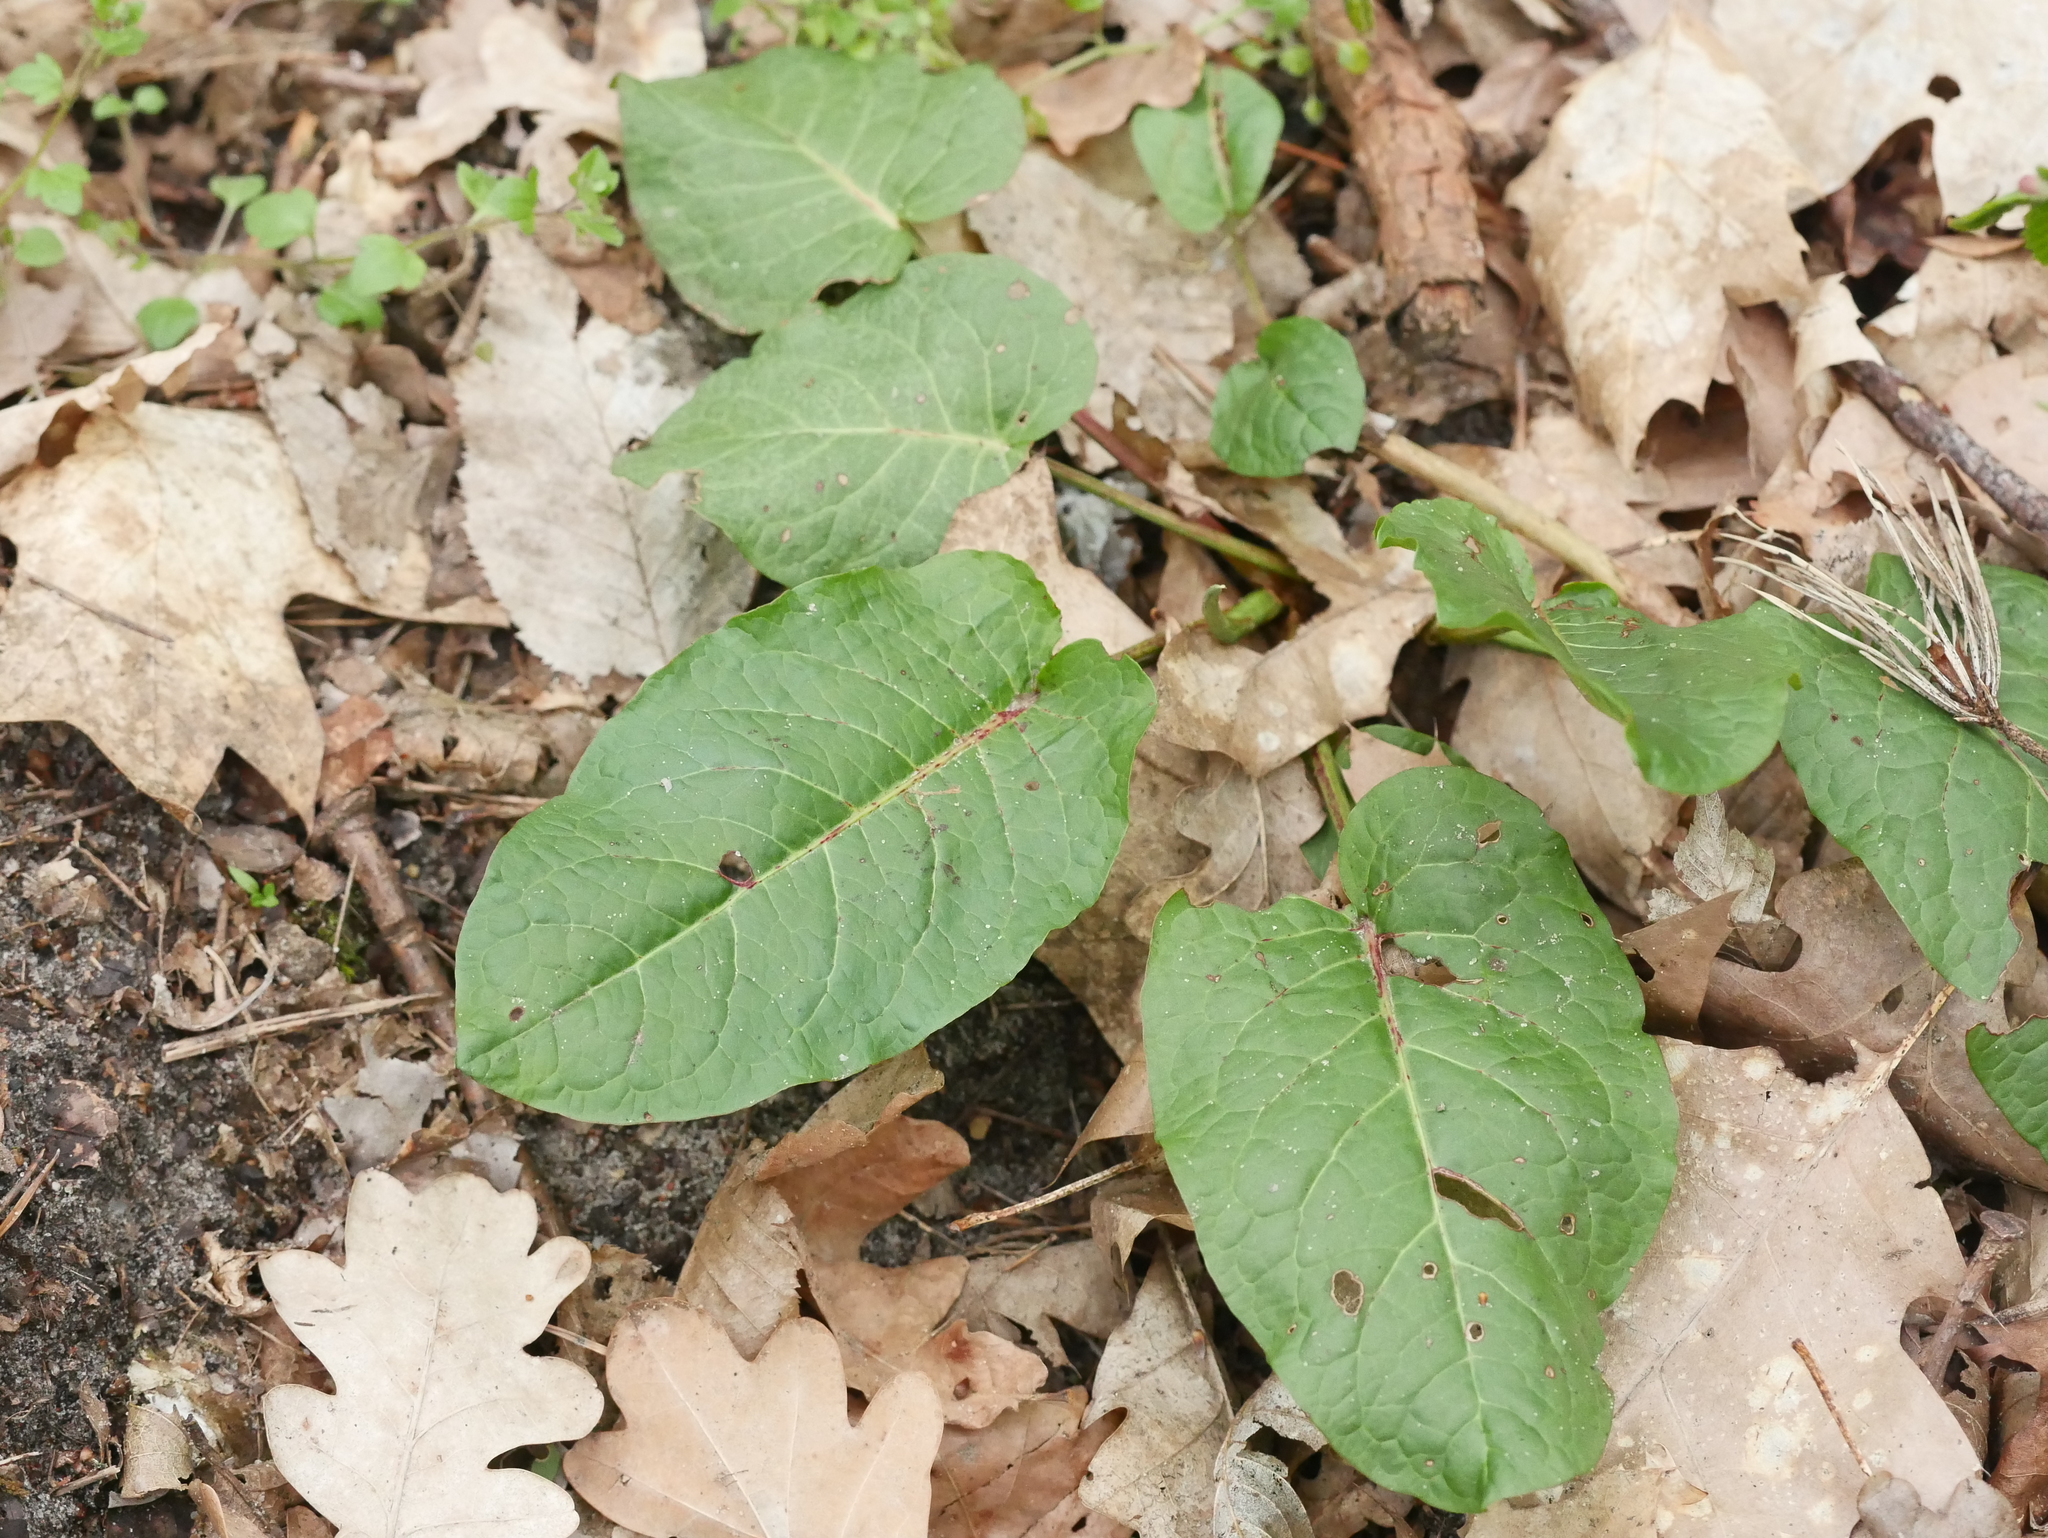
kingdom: Plantae
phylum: Tracheophyta
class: Magnoliopsida
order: Caryophyllales
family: Polygonaceae
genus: Rumex
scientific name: Rumex obtusifolius
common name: Bitter dock
